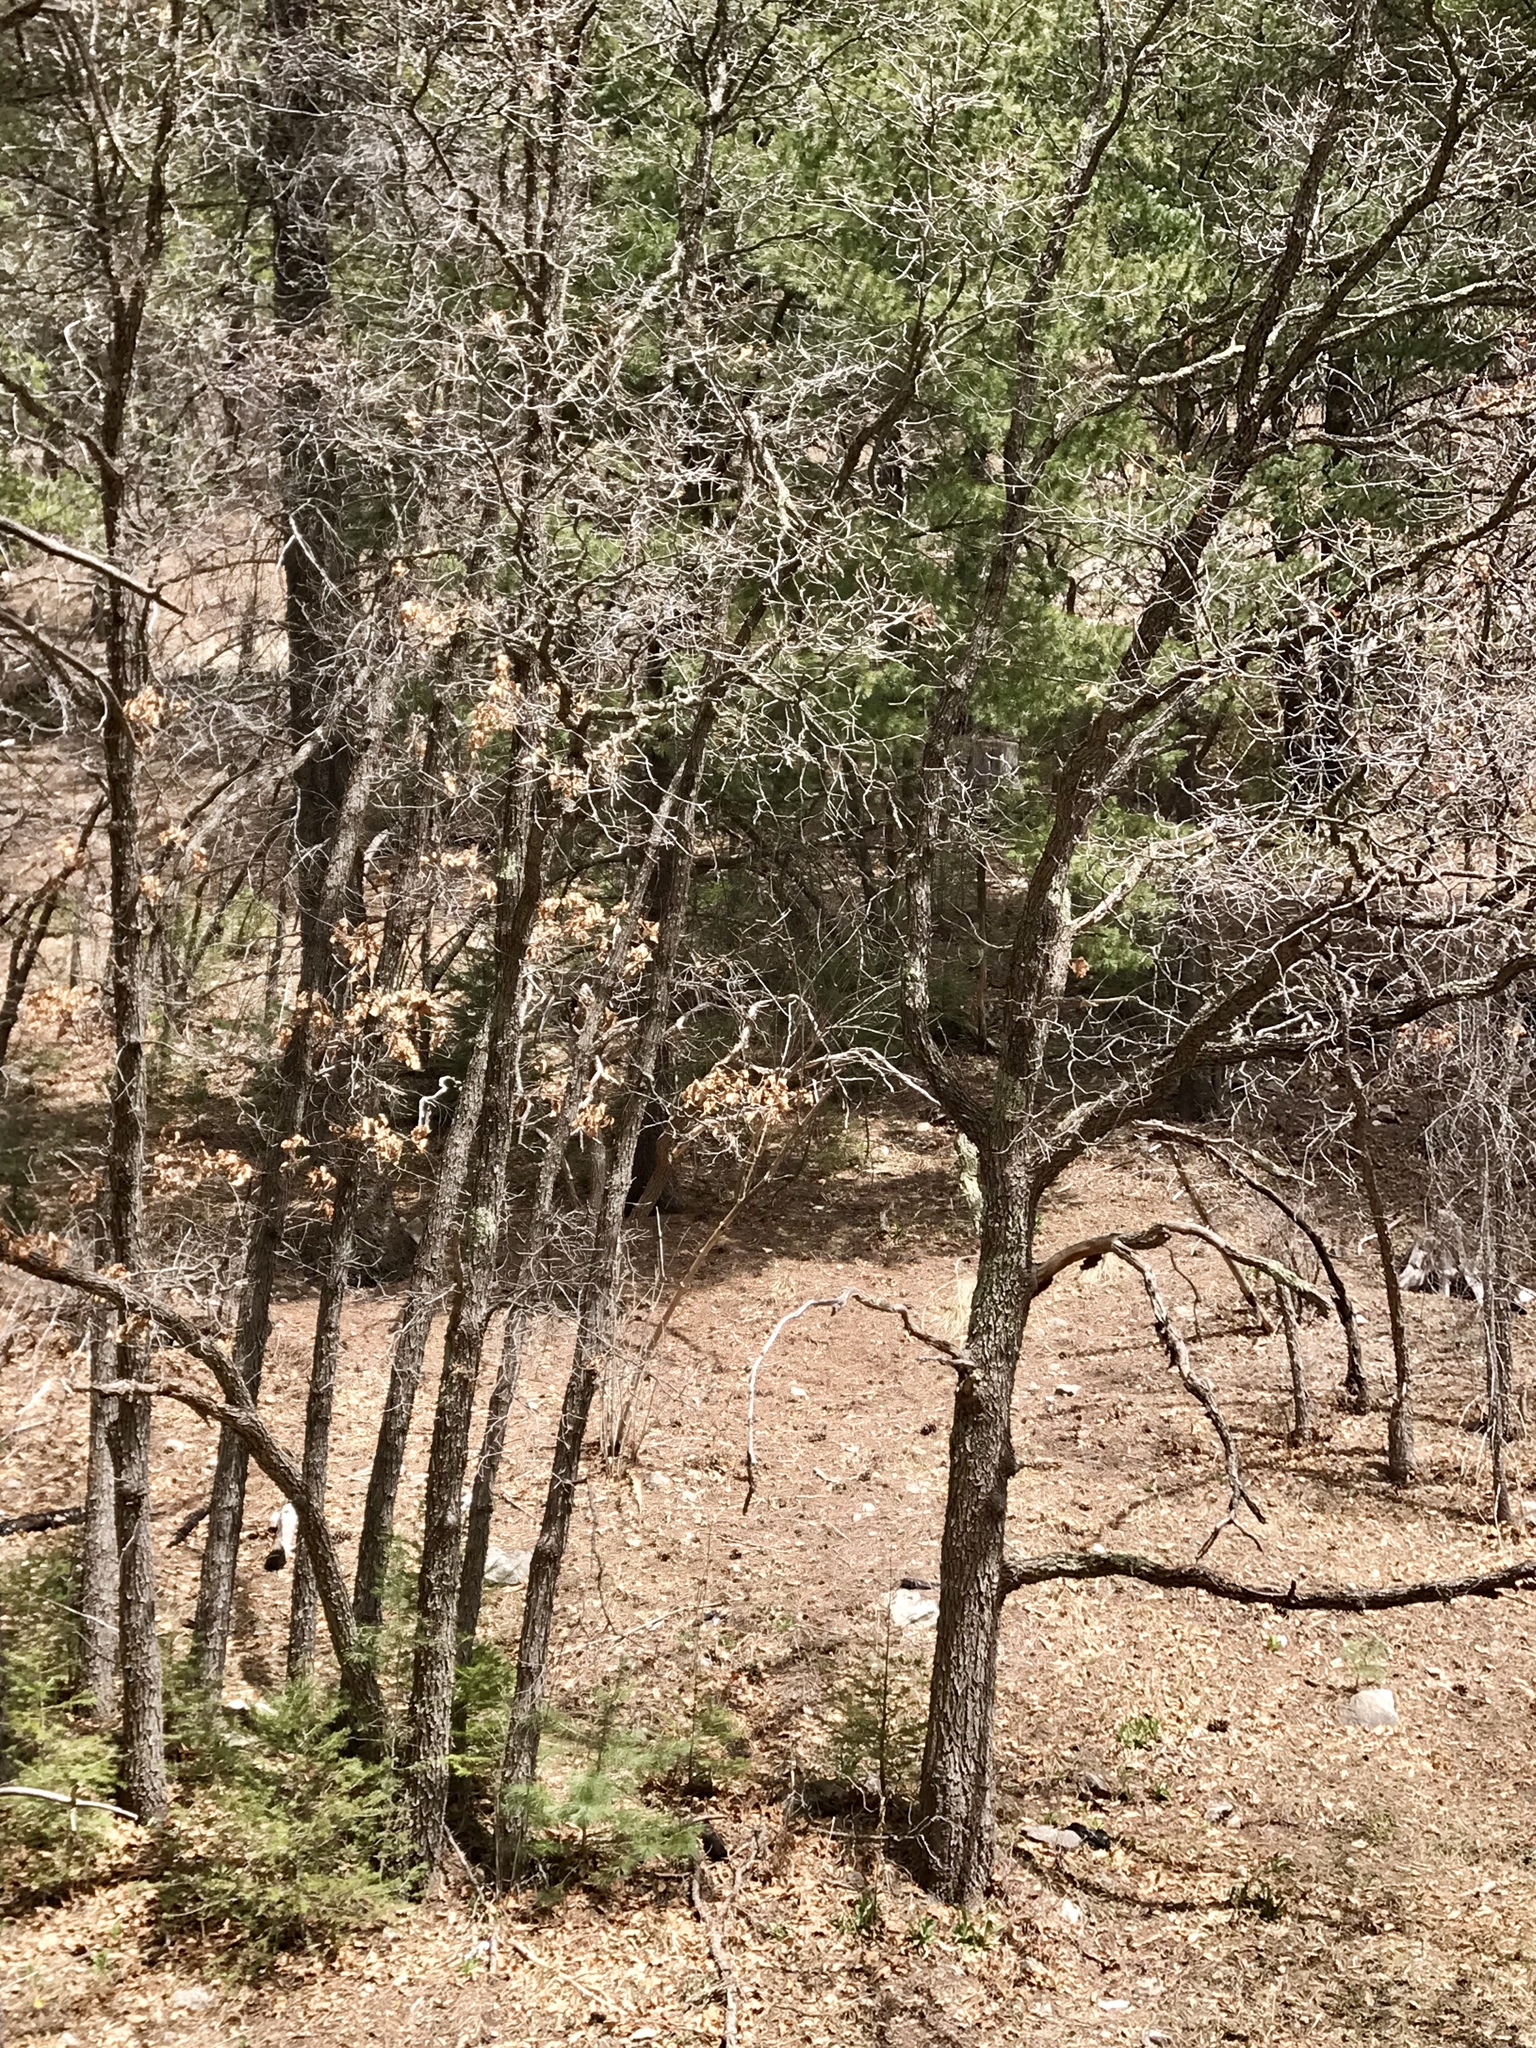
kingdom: Plantae
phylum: Tracheophyta
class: Magnoliopsida
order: Fagales
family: Fagaceae
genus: Quercus
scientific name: Quercus gambelii
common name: Gambel oak
